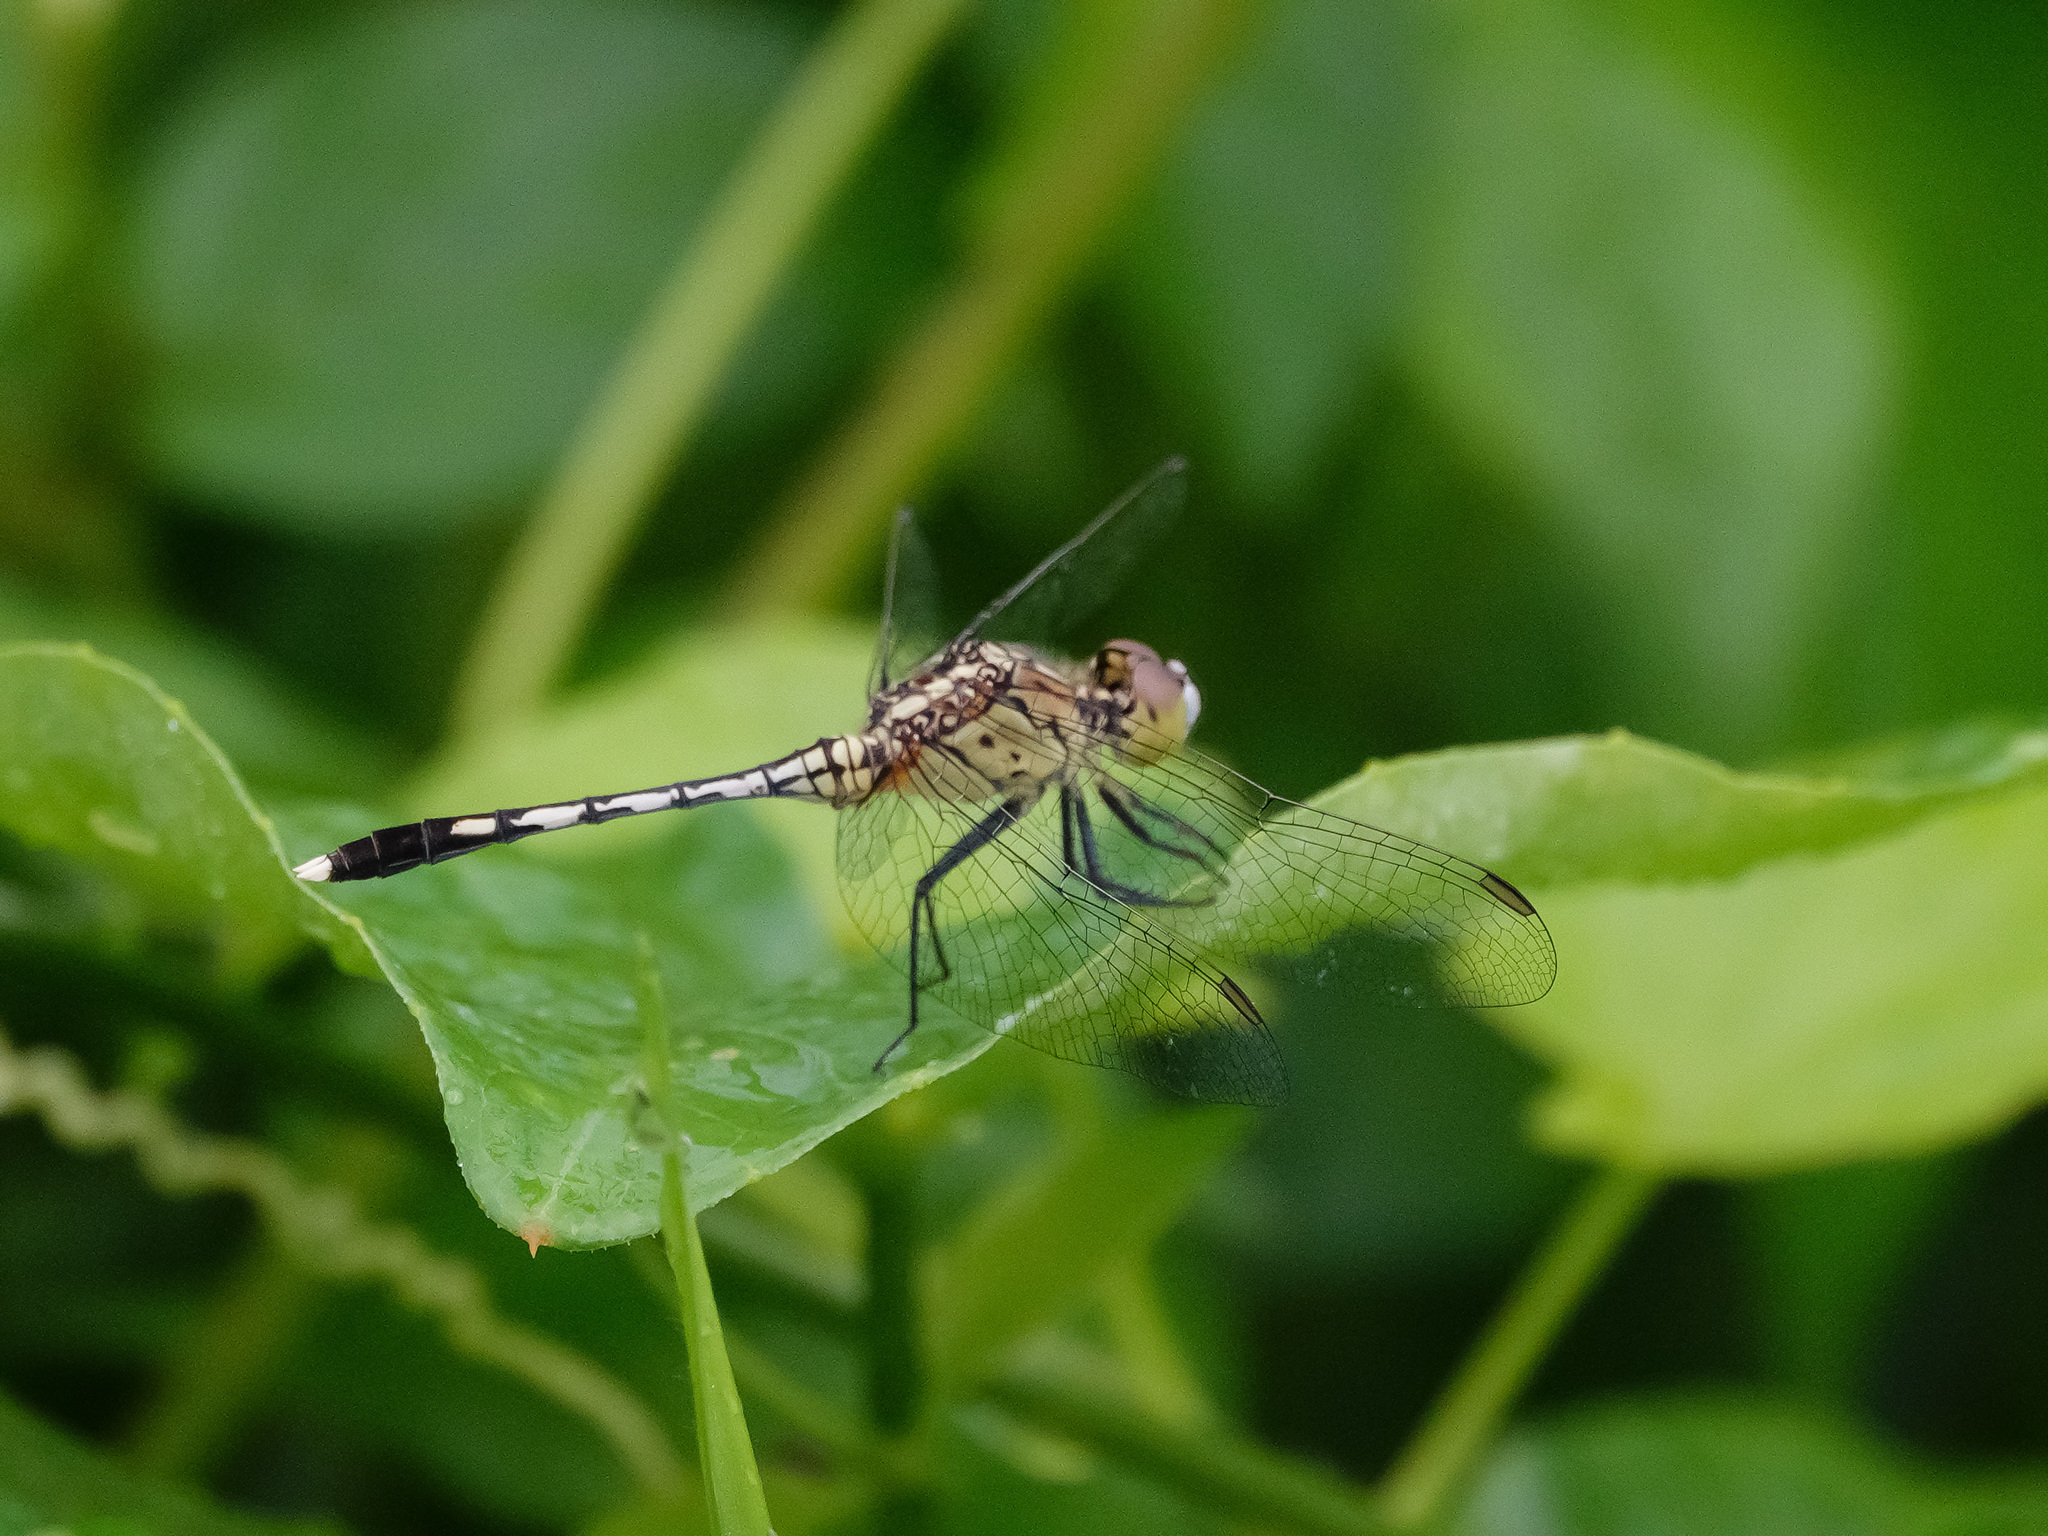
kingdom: Animalia
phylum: Arthropoda
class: Insecta
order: Odonata
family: Libellulidae
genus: Diplacodes
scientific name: Diplacodes trivialis
